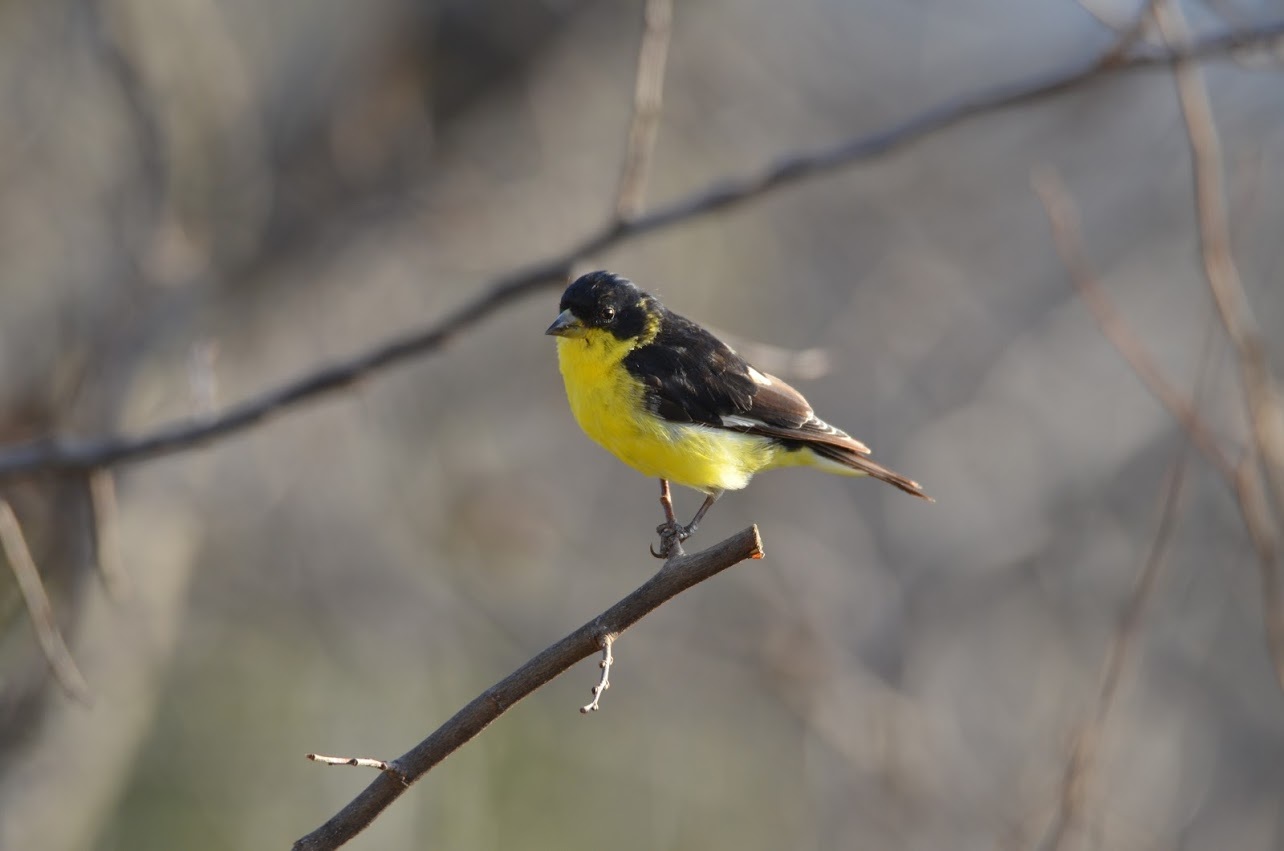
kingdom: Animalia
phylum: Chordata
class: Aves
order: Passeriformes
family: Fringillidae
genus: Spinus
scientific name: Spinus psaltria
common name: Lesser goldfinch
